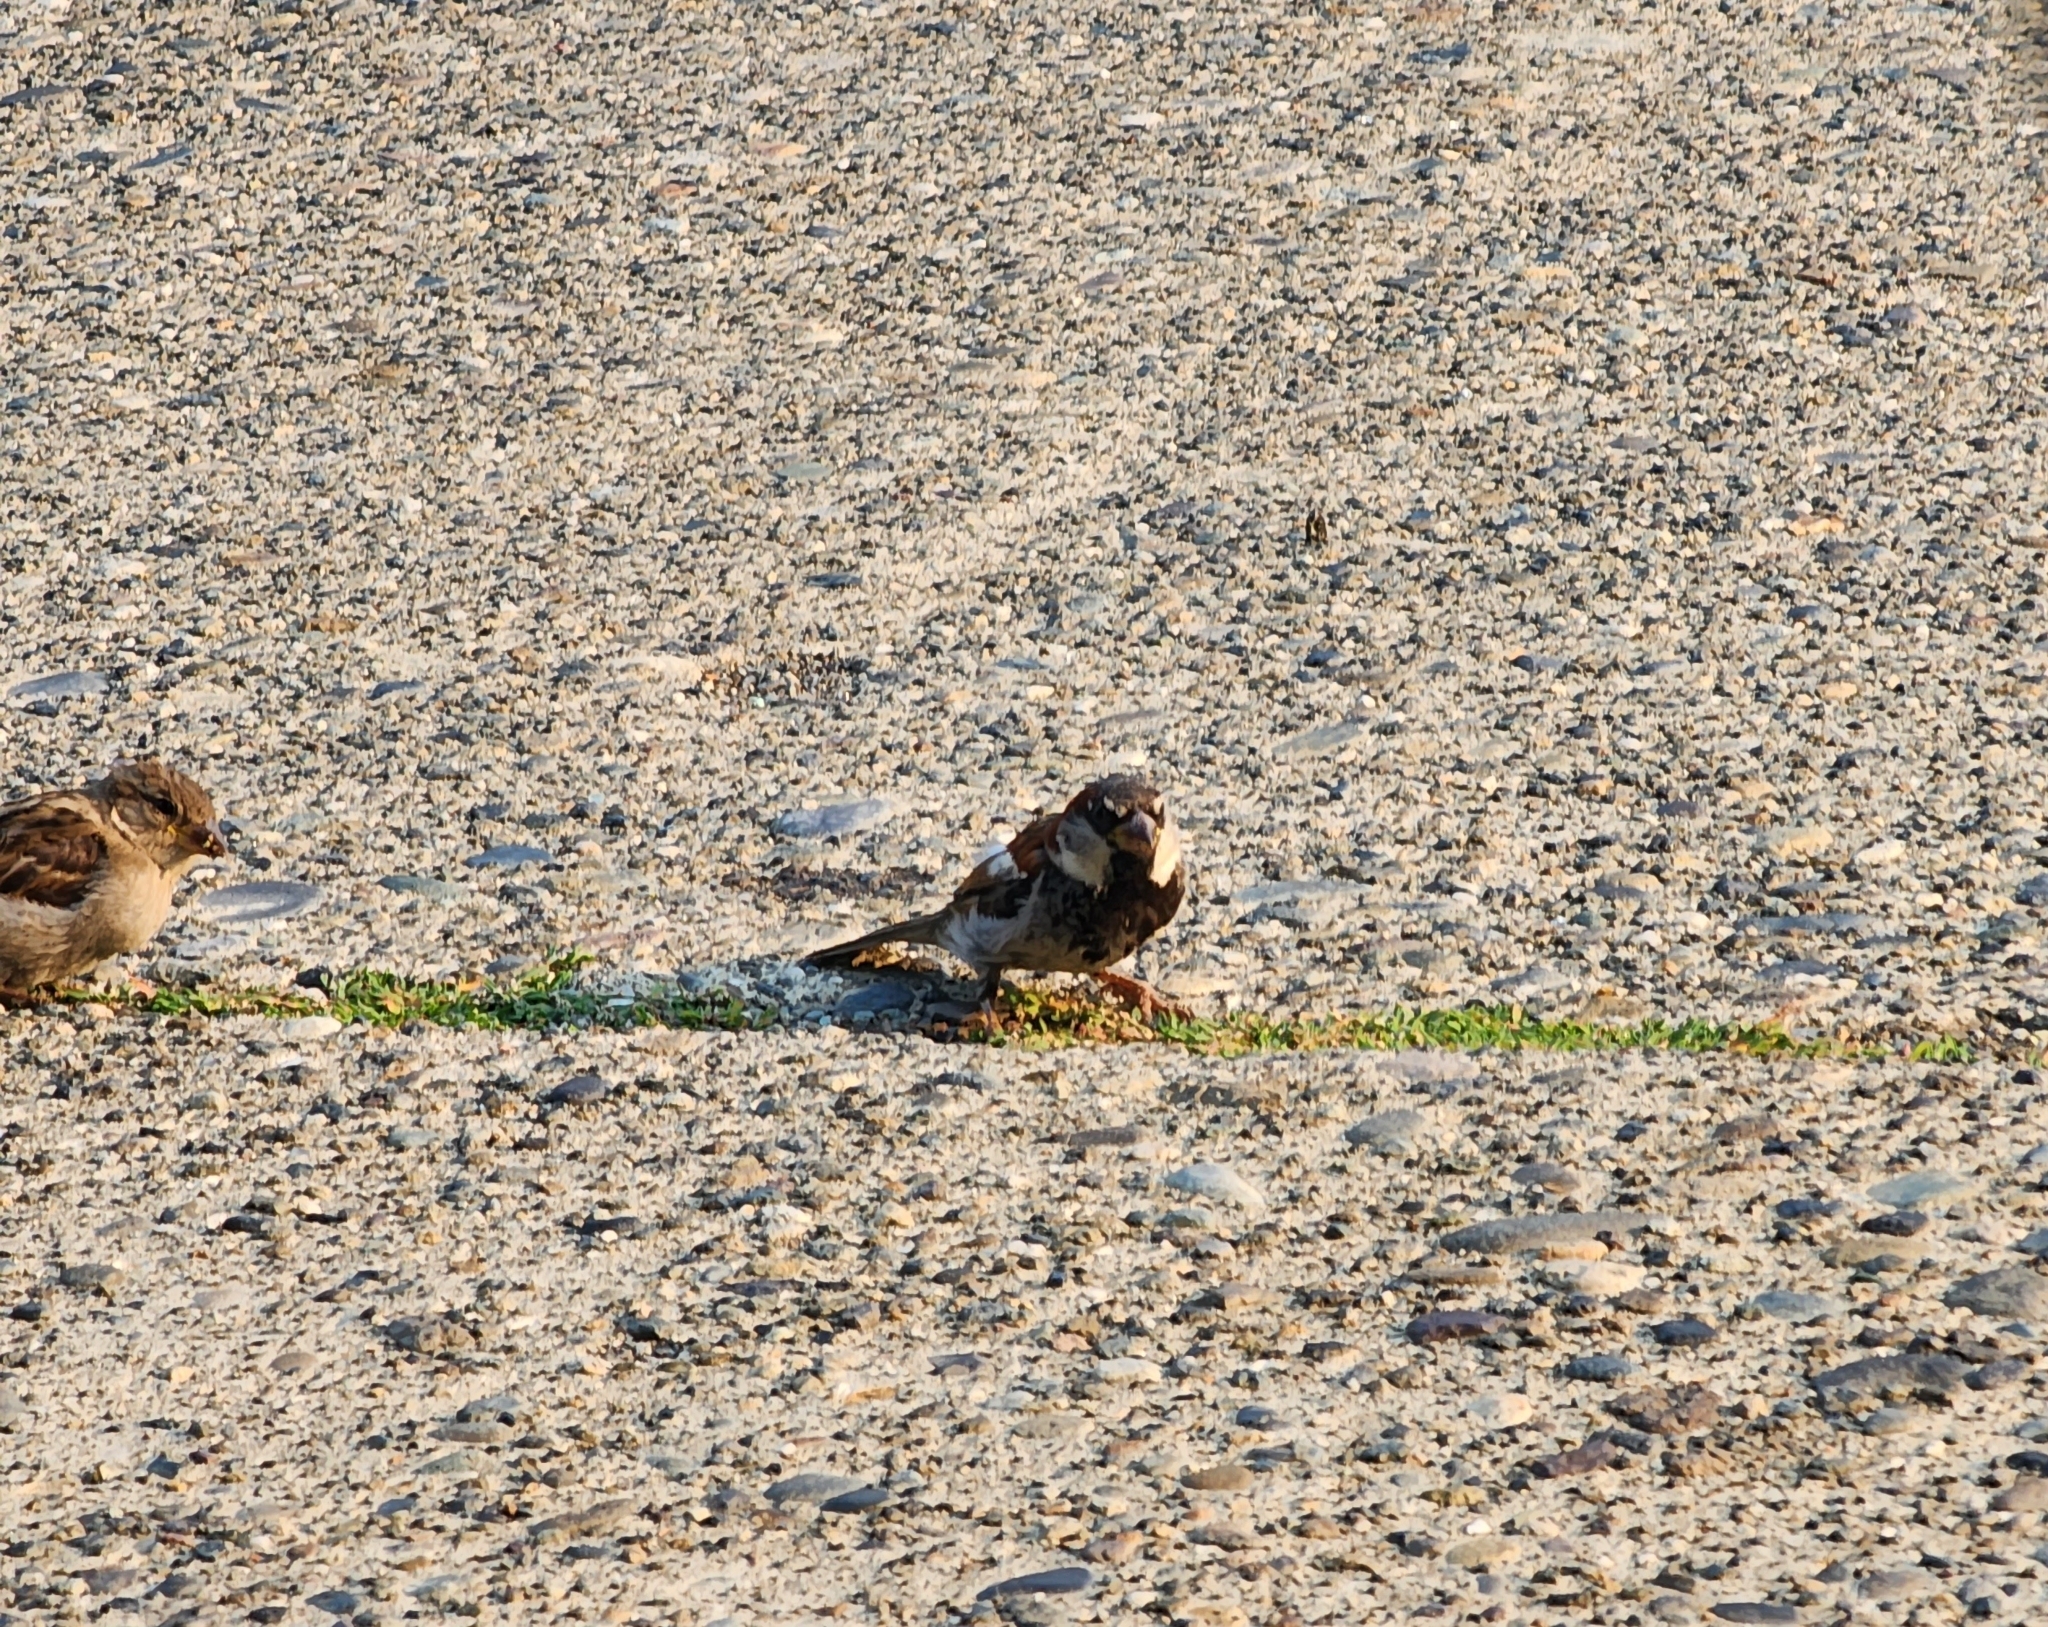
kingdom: Animalia
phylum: Chordata
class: Aves
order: Passeriformes
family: Passeridae
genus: Passer
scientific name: Passer domesticus
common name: House sparrow
